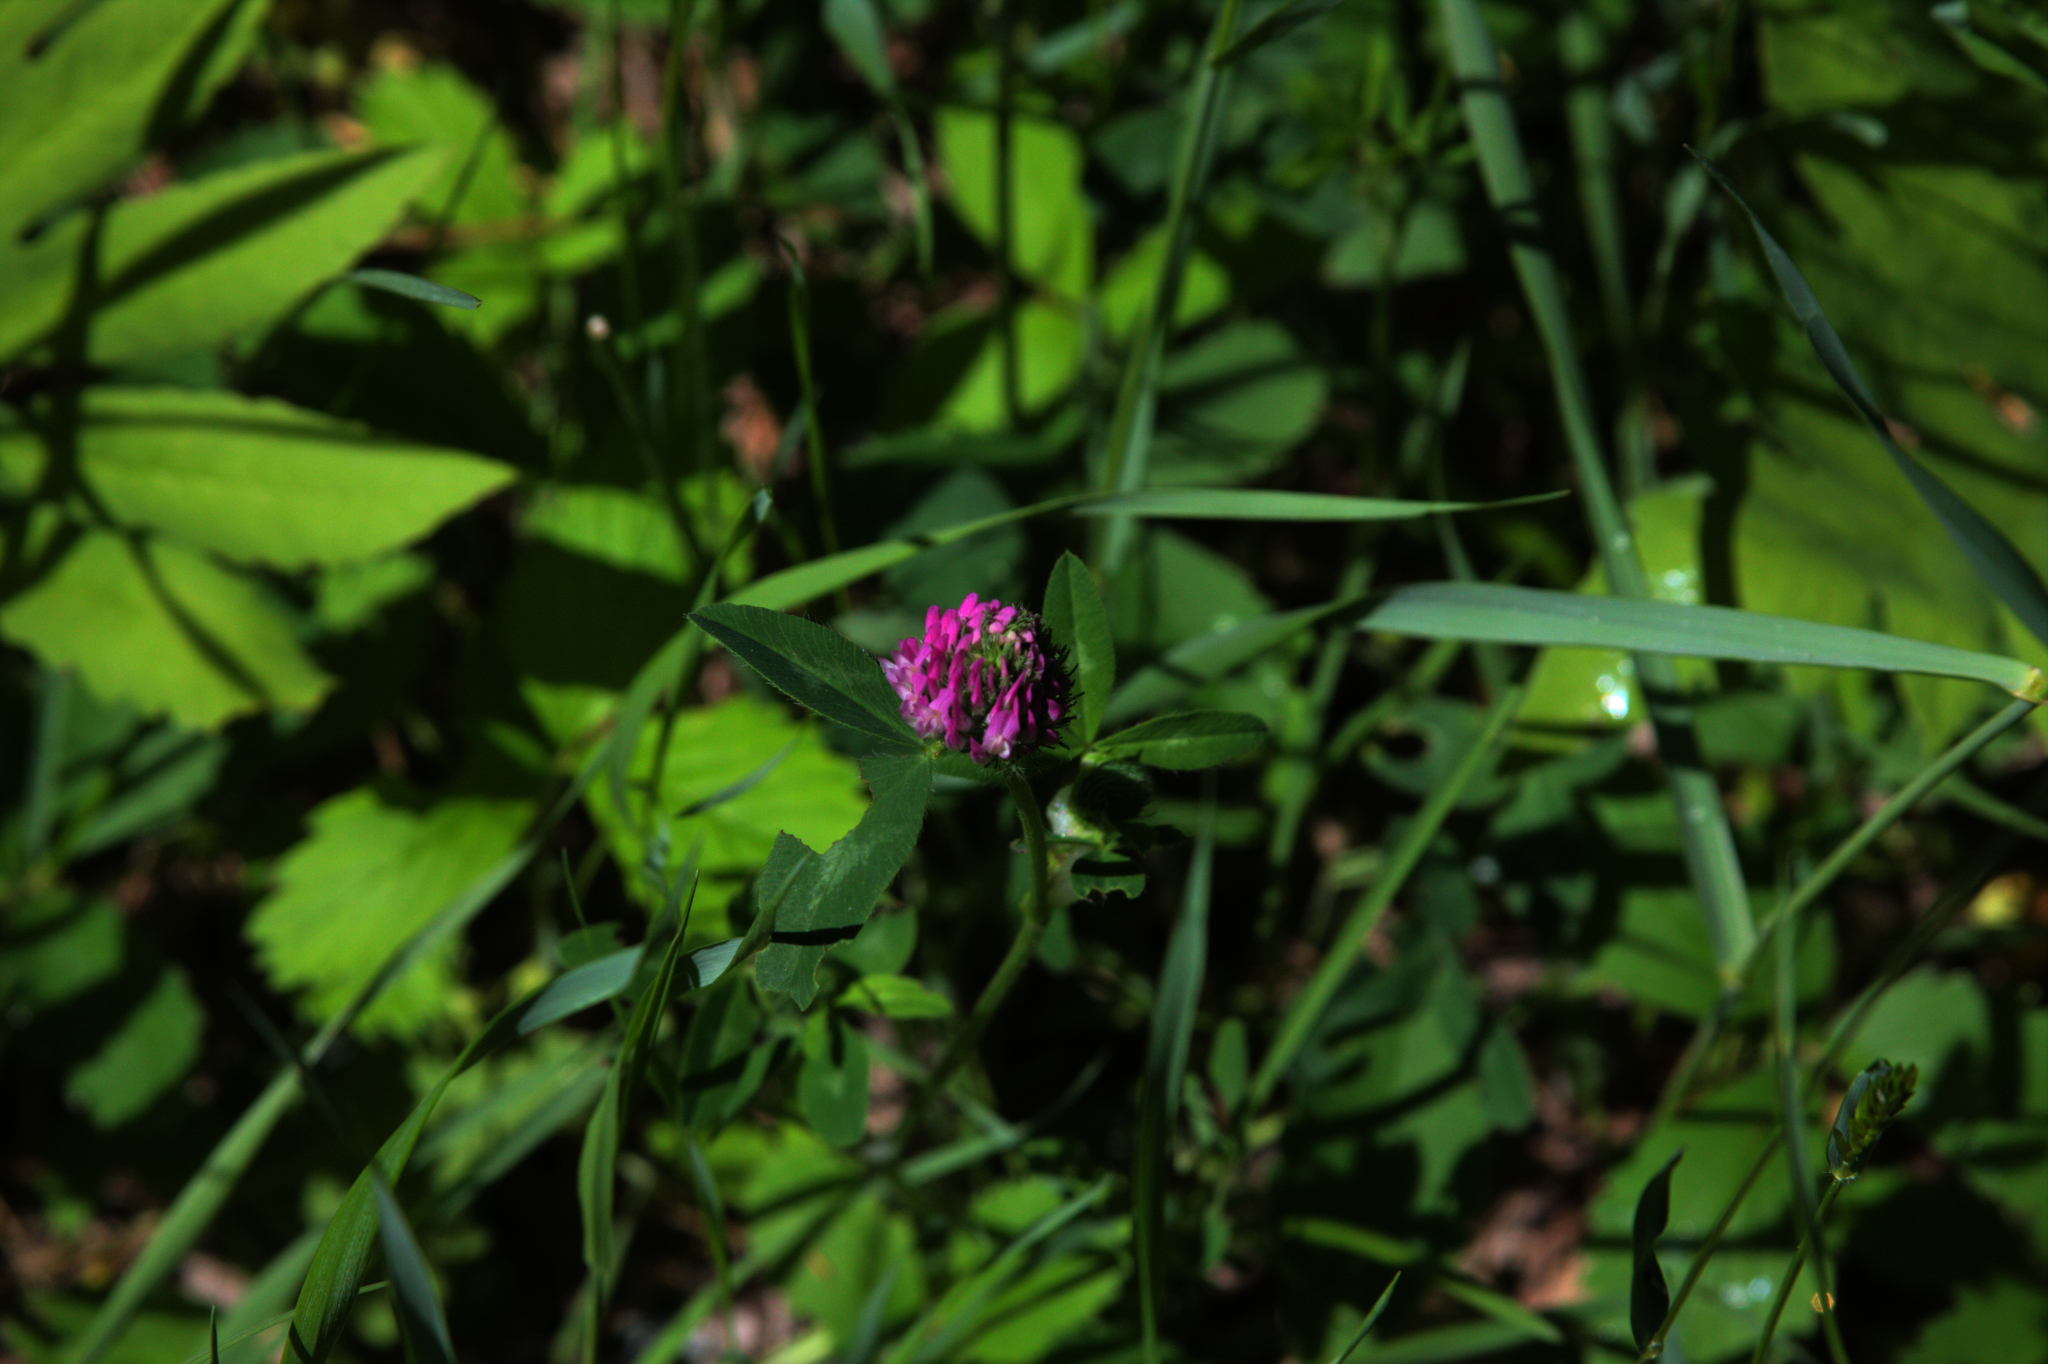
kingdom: Plantae
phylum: Tracheophyta
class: Magnoliopsida
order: Fabales
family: Fabaceae
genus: Trifolium
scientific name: Trifolium pratense
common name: Red clover
